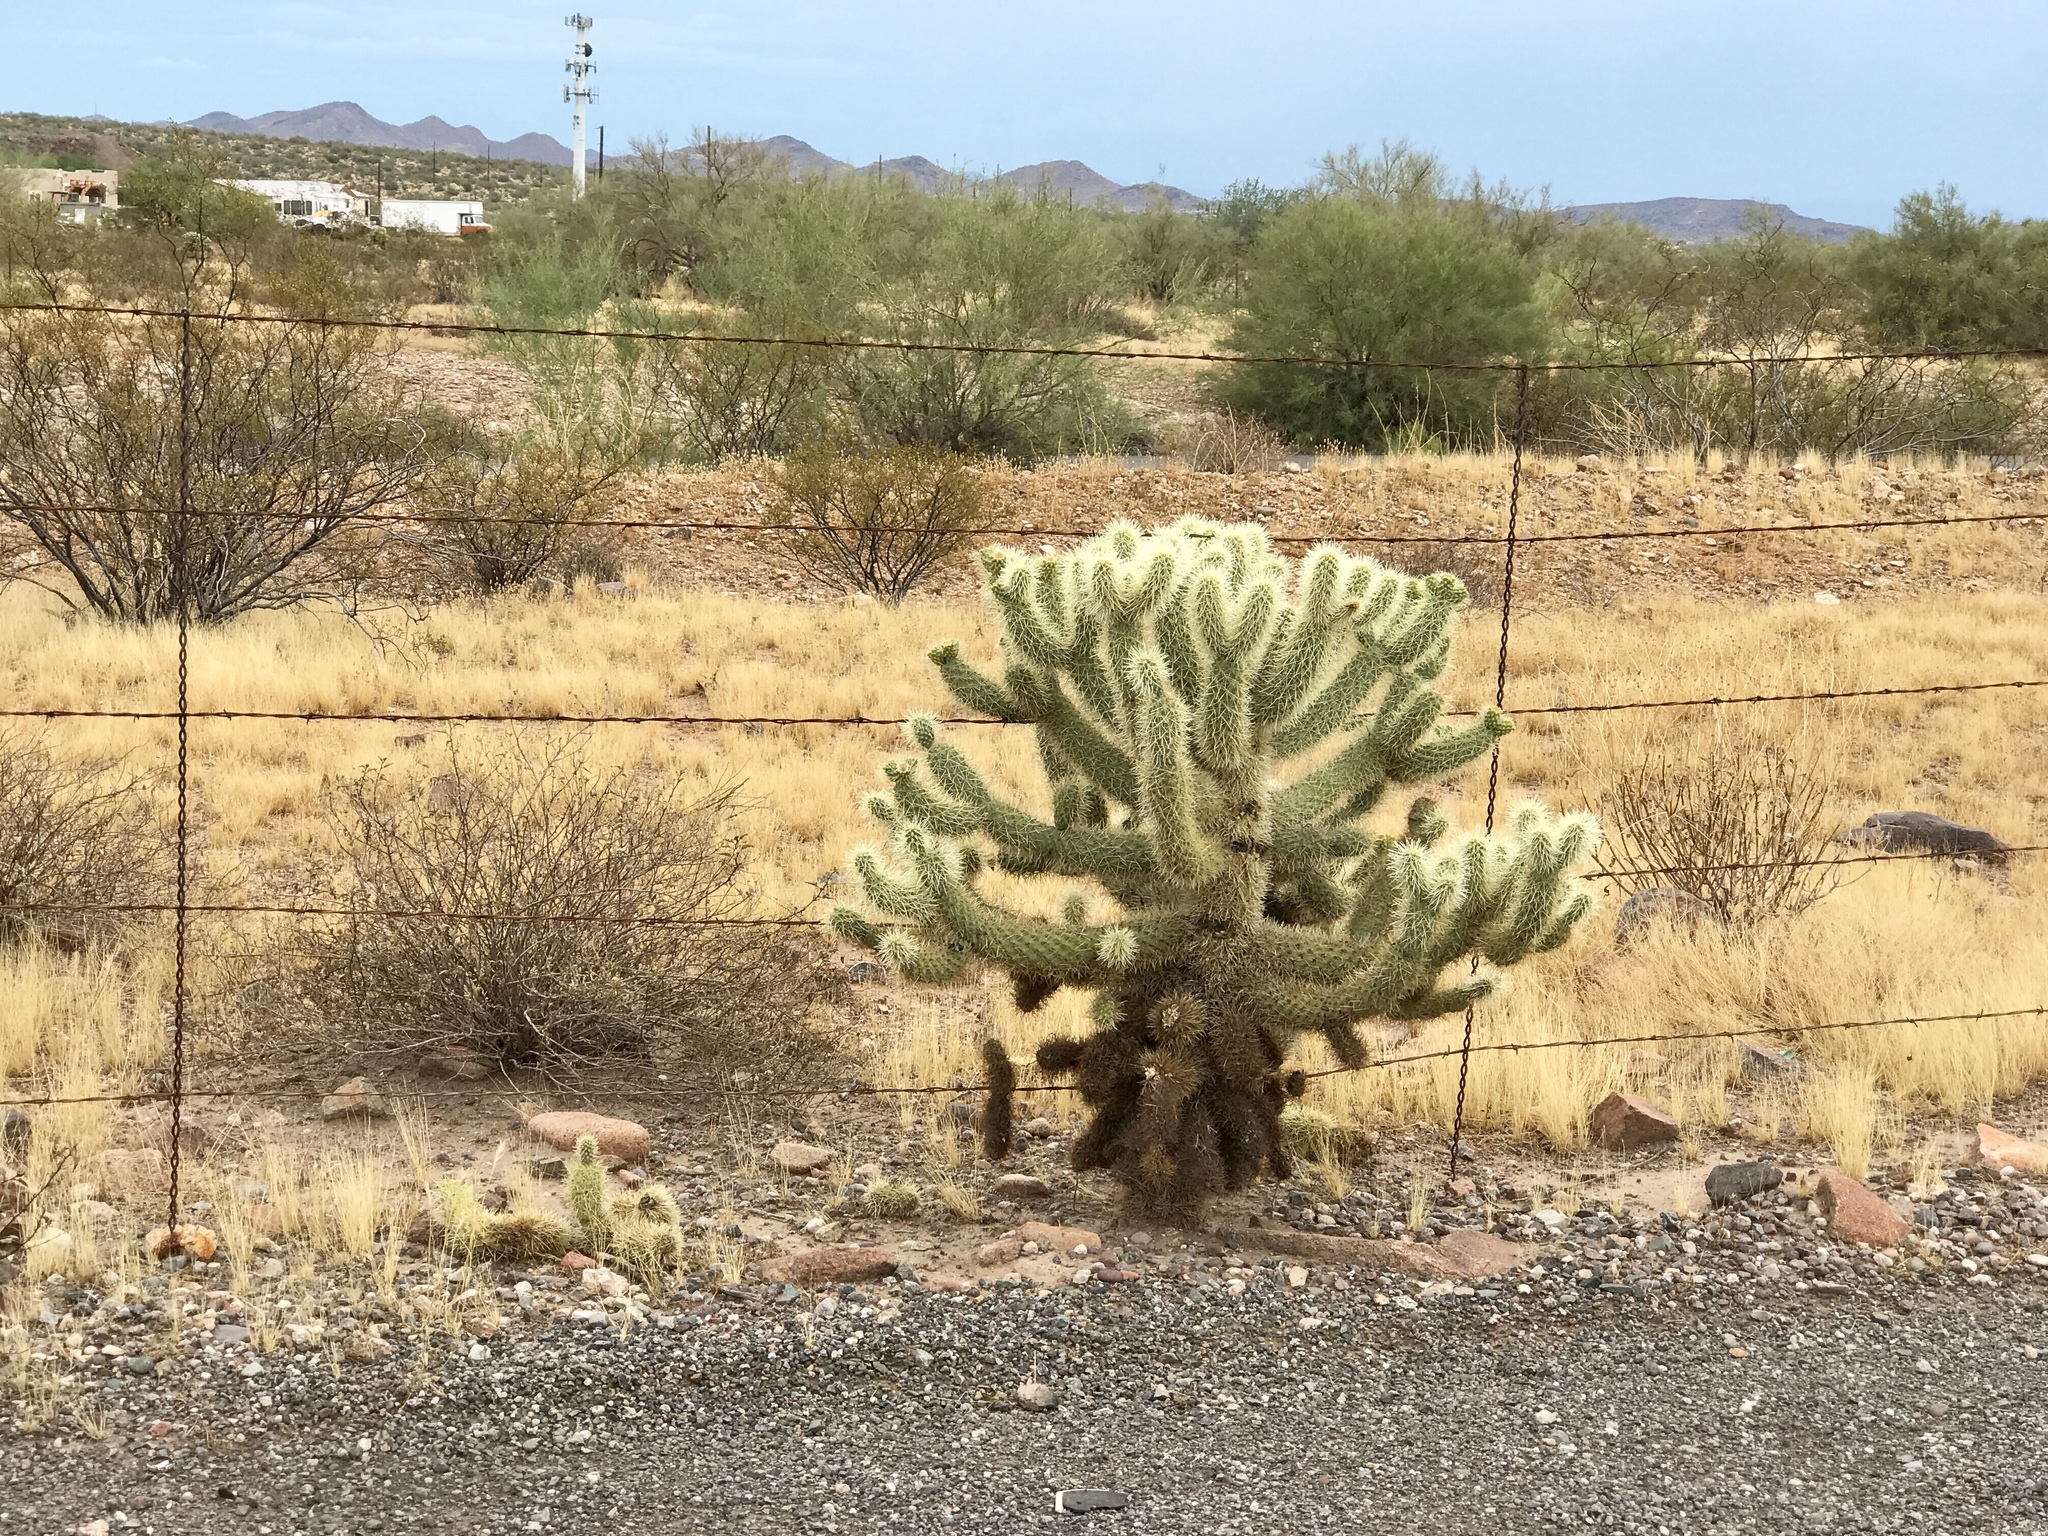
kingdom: Plantae
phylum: Tracheophyta
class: Magnoliopsida
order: Caryophyllales
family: Cactaceae
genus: Cylindropuntia
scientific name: Cylindropuntia fosbergii
